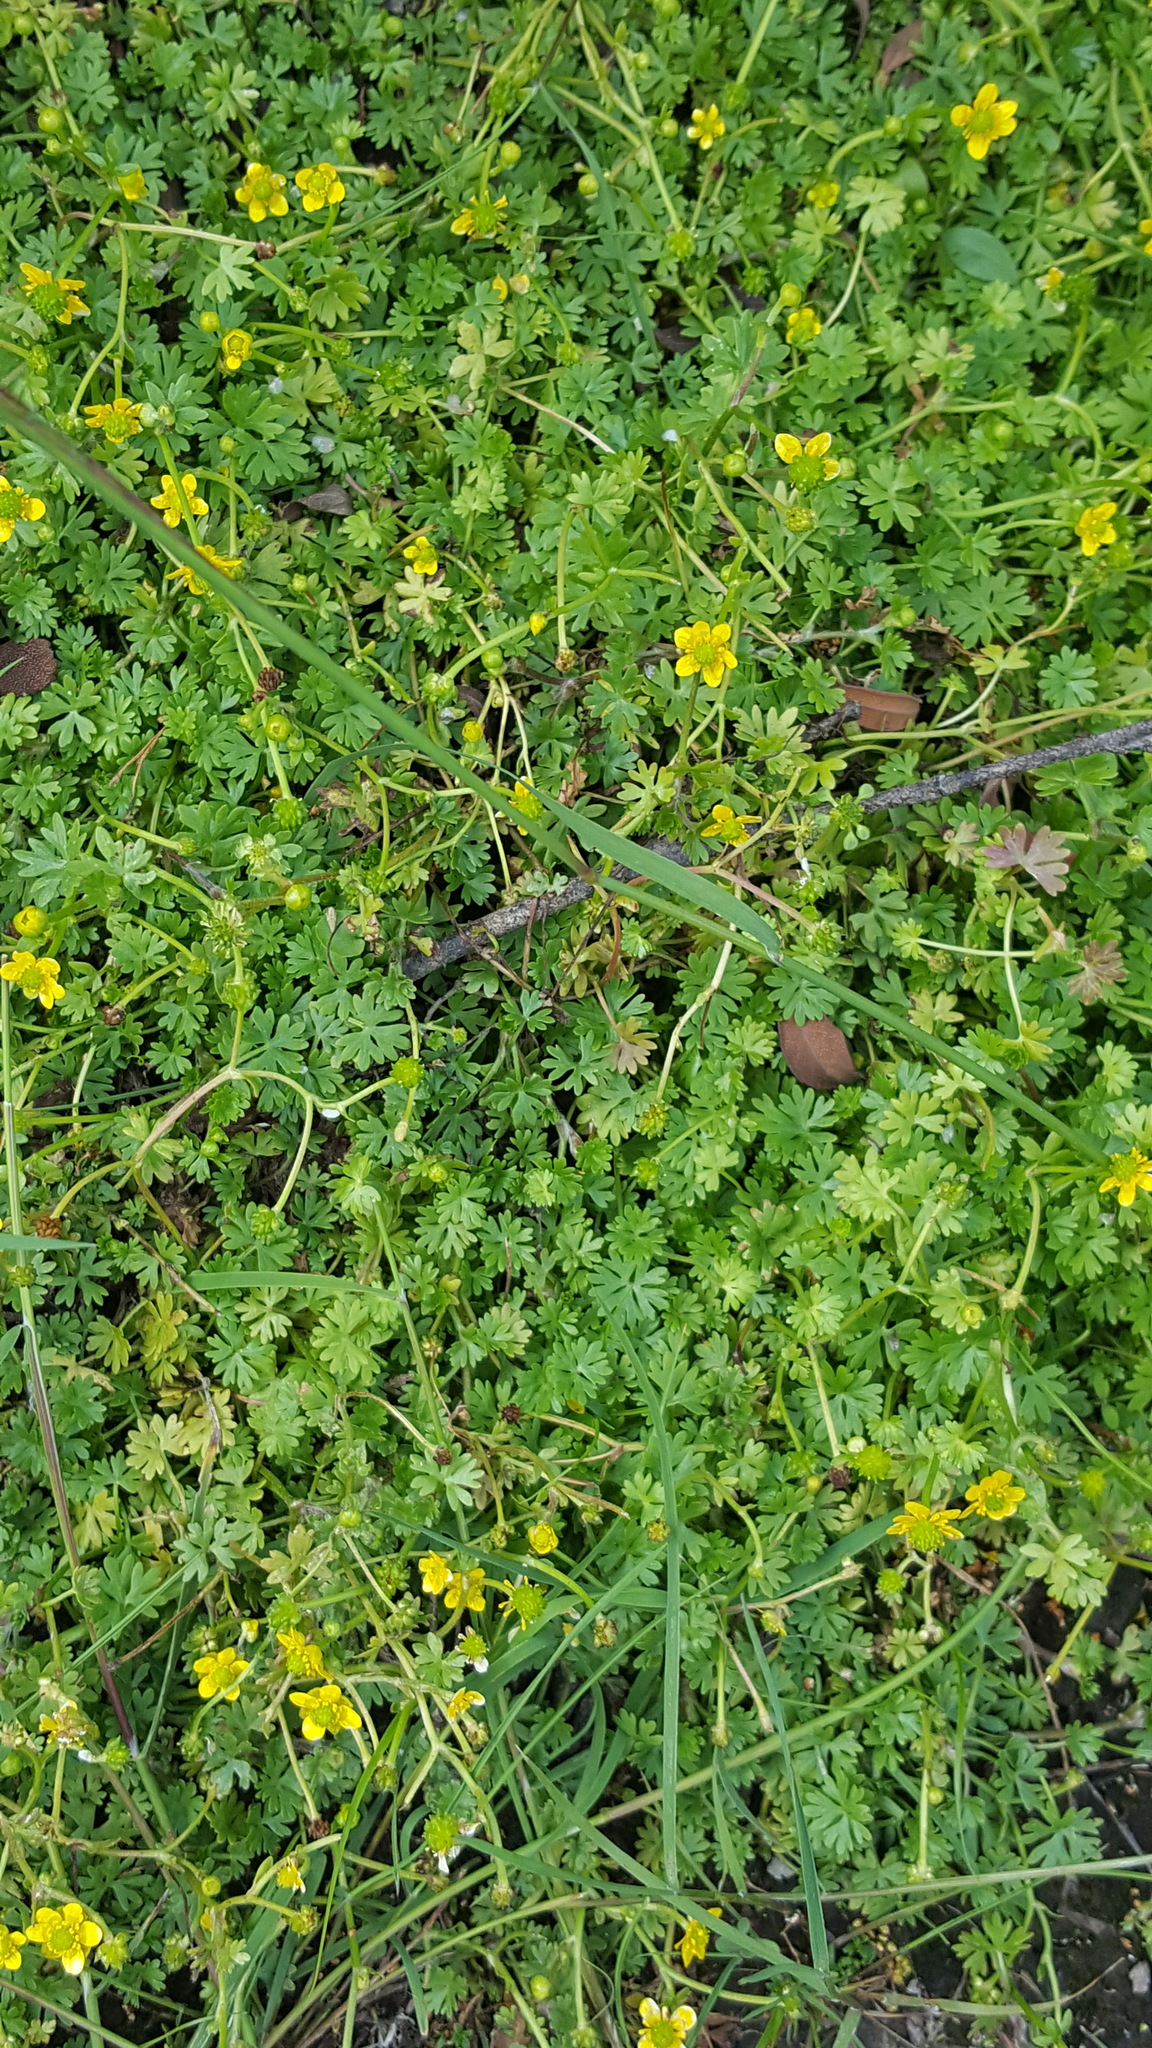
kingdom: Plantae
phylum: Tracheophyta
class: Magnoliopsida
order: Ranunculales
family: Ranunculaceae
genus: Ranunculus
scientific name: Ranunculus gmelinii
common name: Gmelin's buttercup
